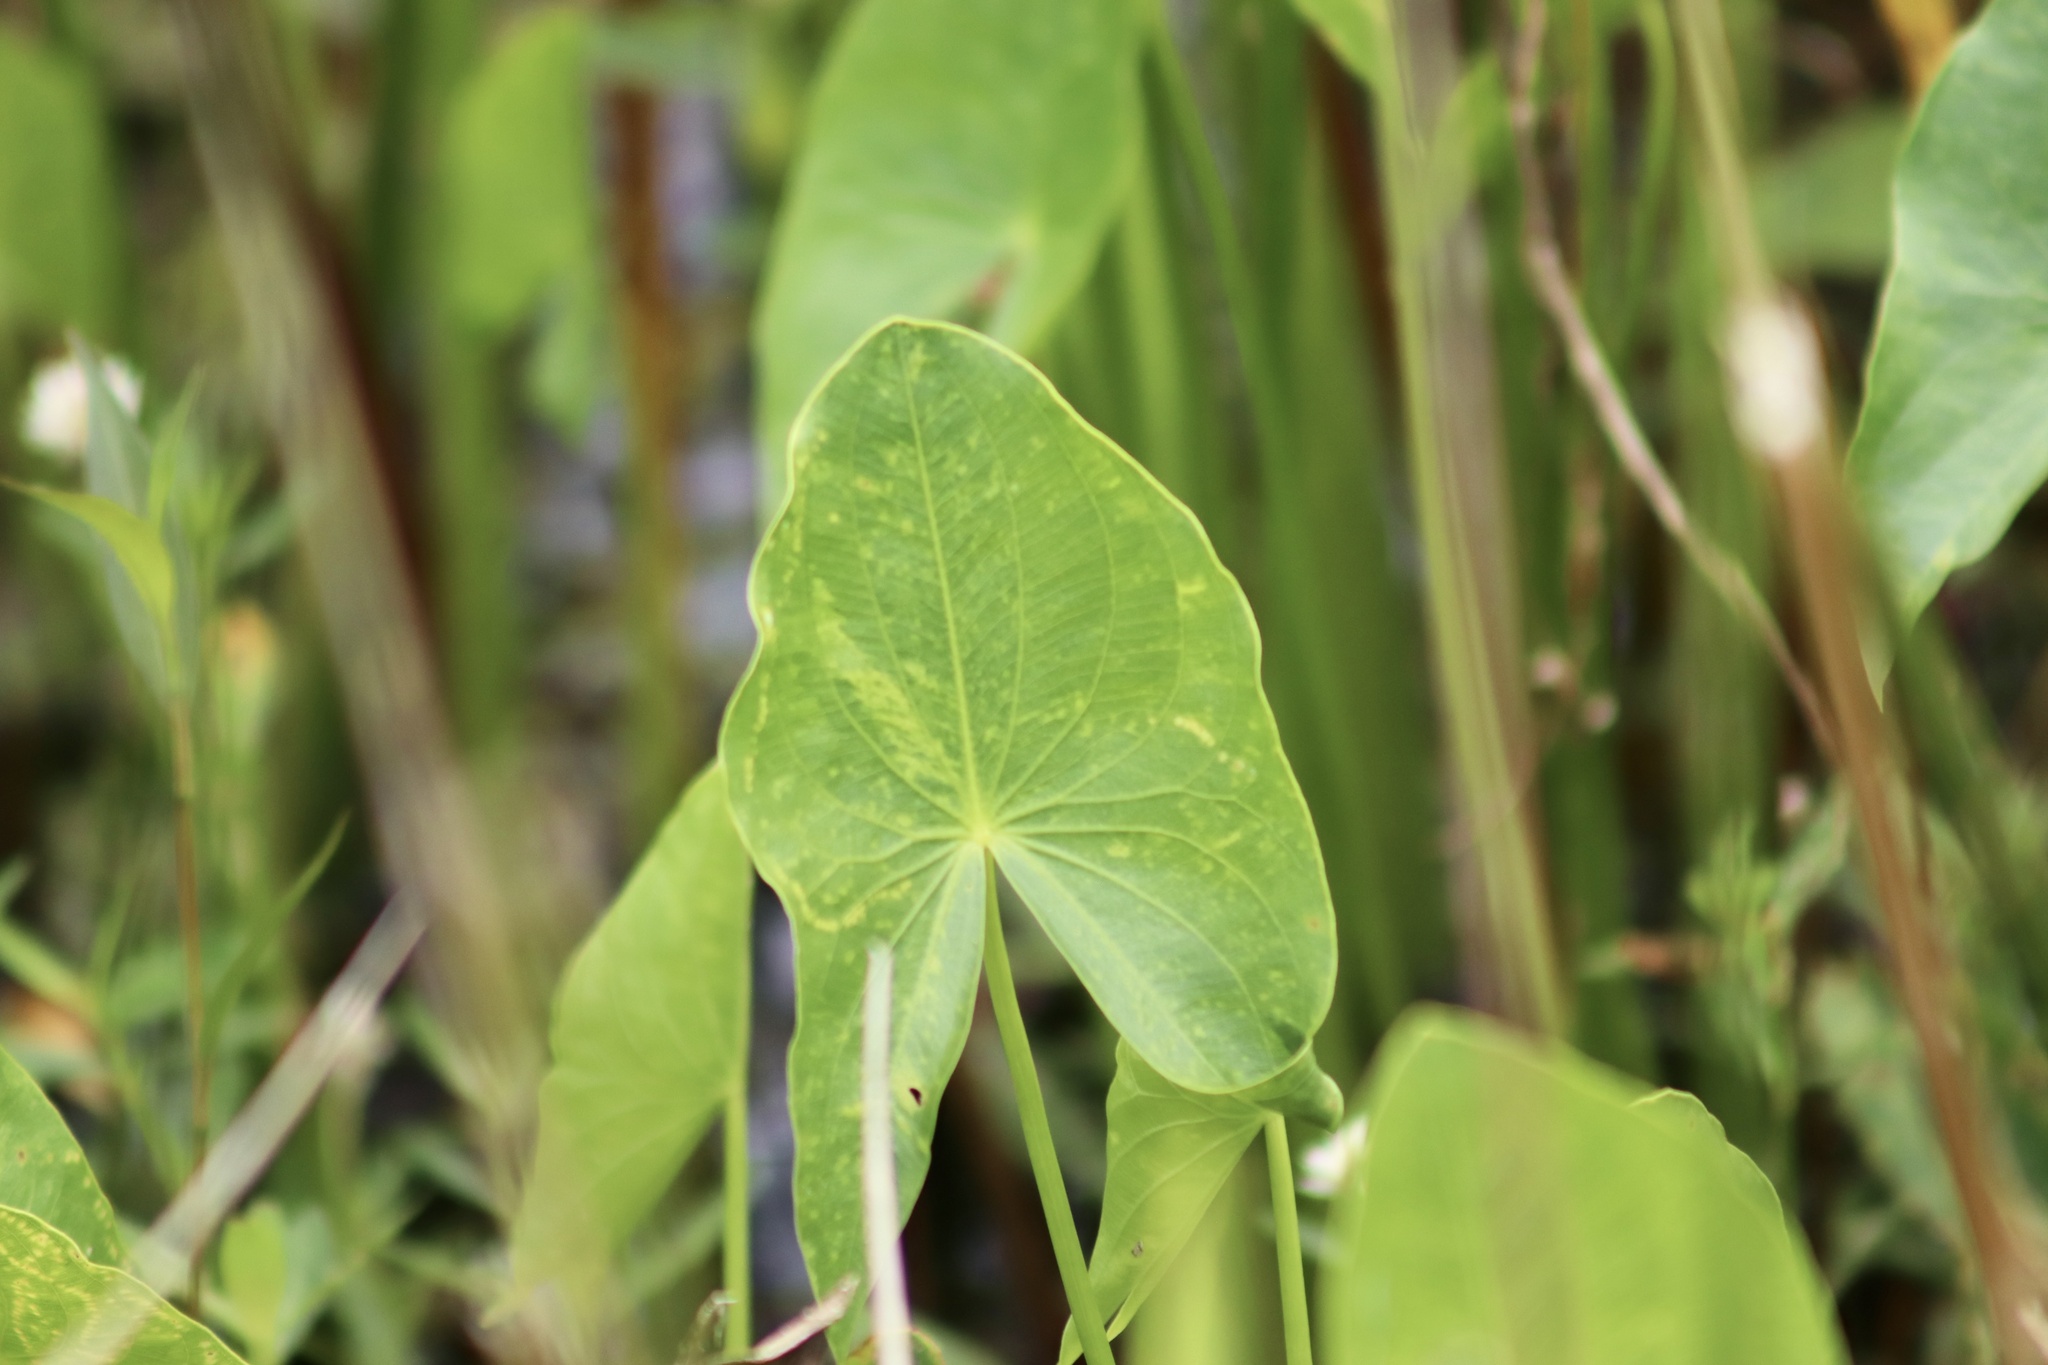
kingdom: Plantae
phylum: Tracheophyta
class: Liliopsida
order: Alismatales
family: Alismataceae
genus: Sagittaria
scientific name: Sagittaria latifolia
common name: Duck-potato
